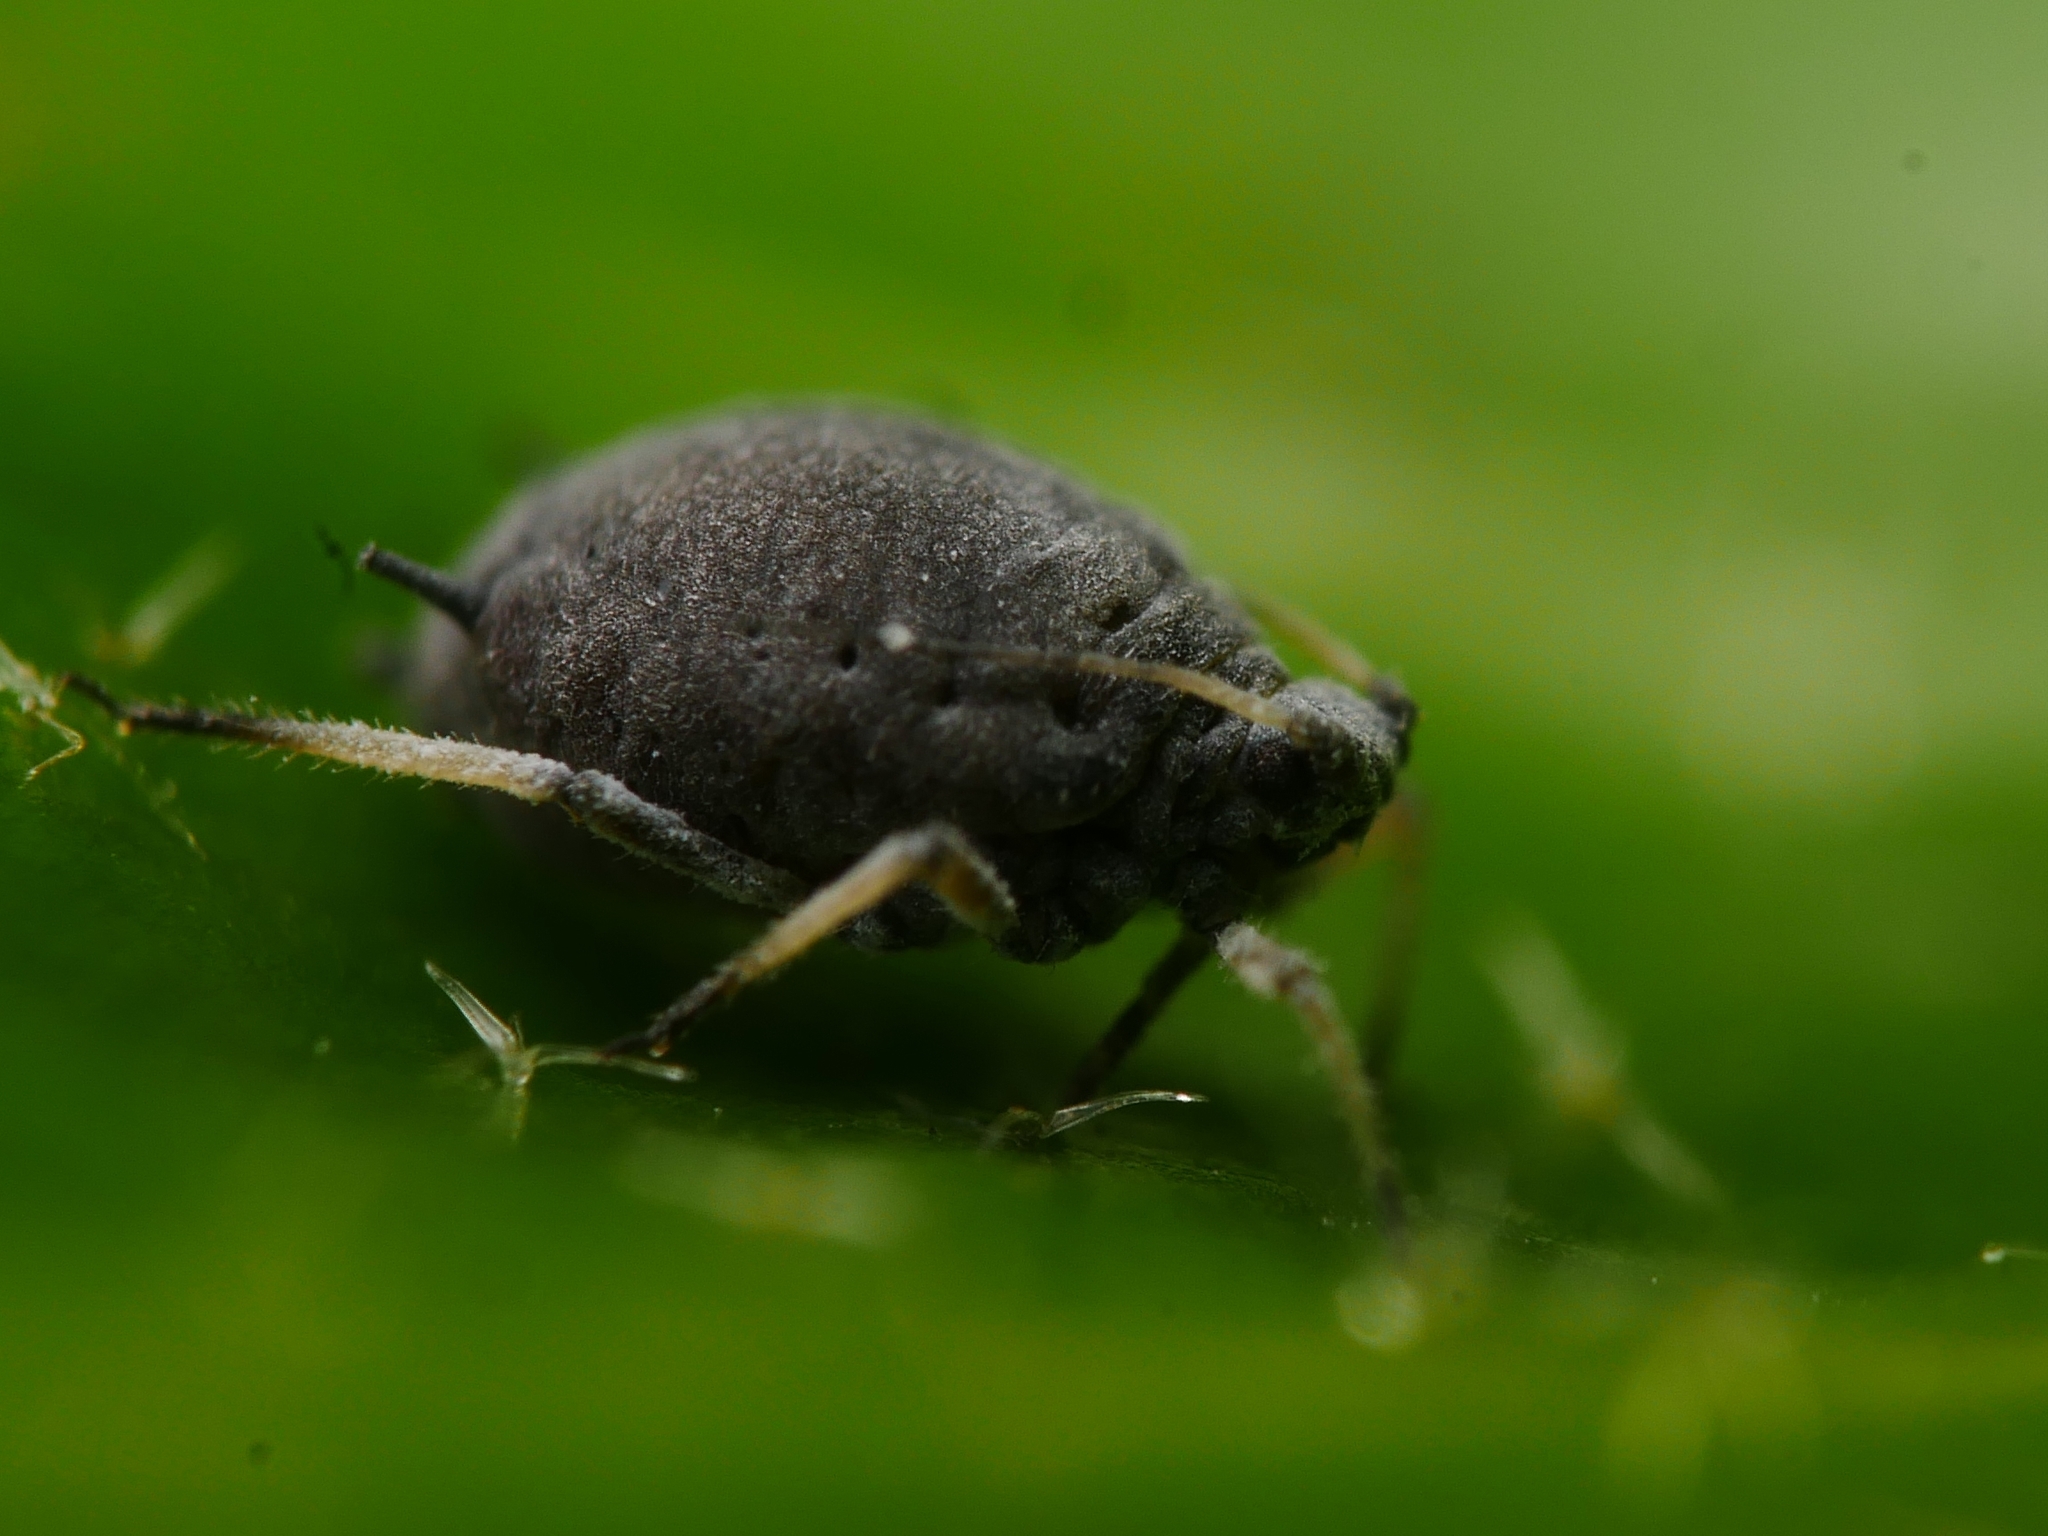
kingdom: Animalia
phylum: Arthropoda
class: Insecta
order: Hemiptera
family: Aphididae
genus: Aphis
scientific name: Aphis hederae
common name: Ivy aphid
